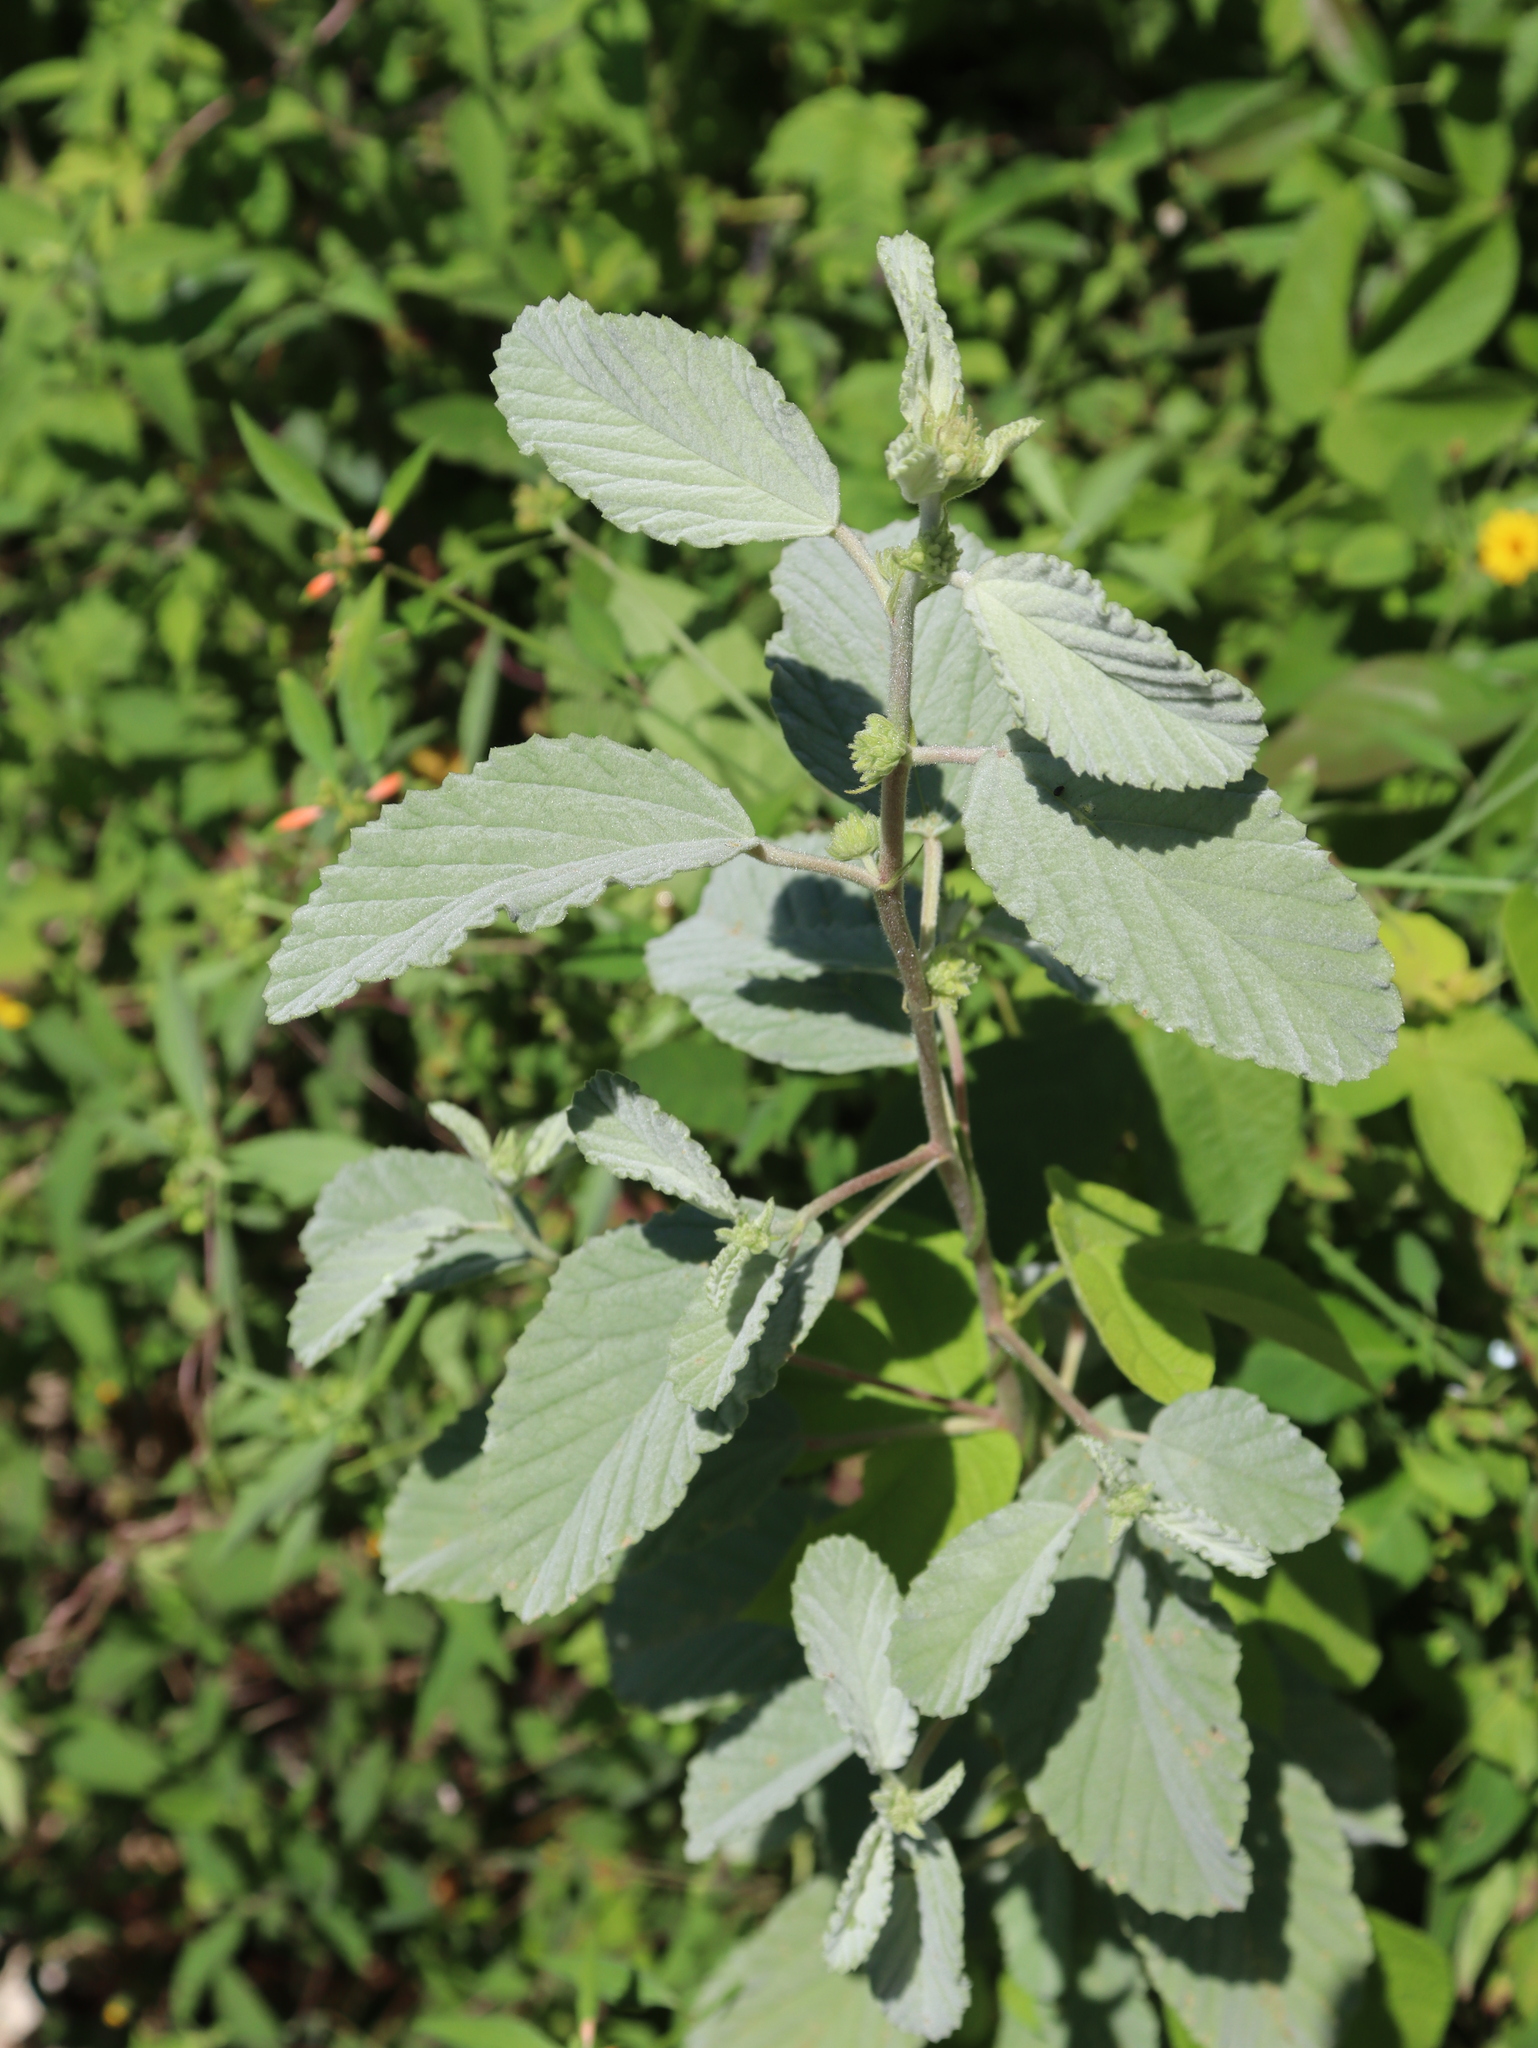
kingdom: Plantae
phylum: Tracheophyta
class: Magnoliopsida
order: Malvales
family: Malvaceae
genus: Melochia
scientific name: Melochia tomentosa
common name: Black torch
